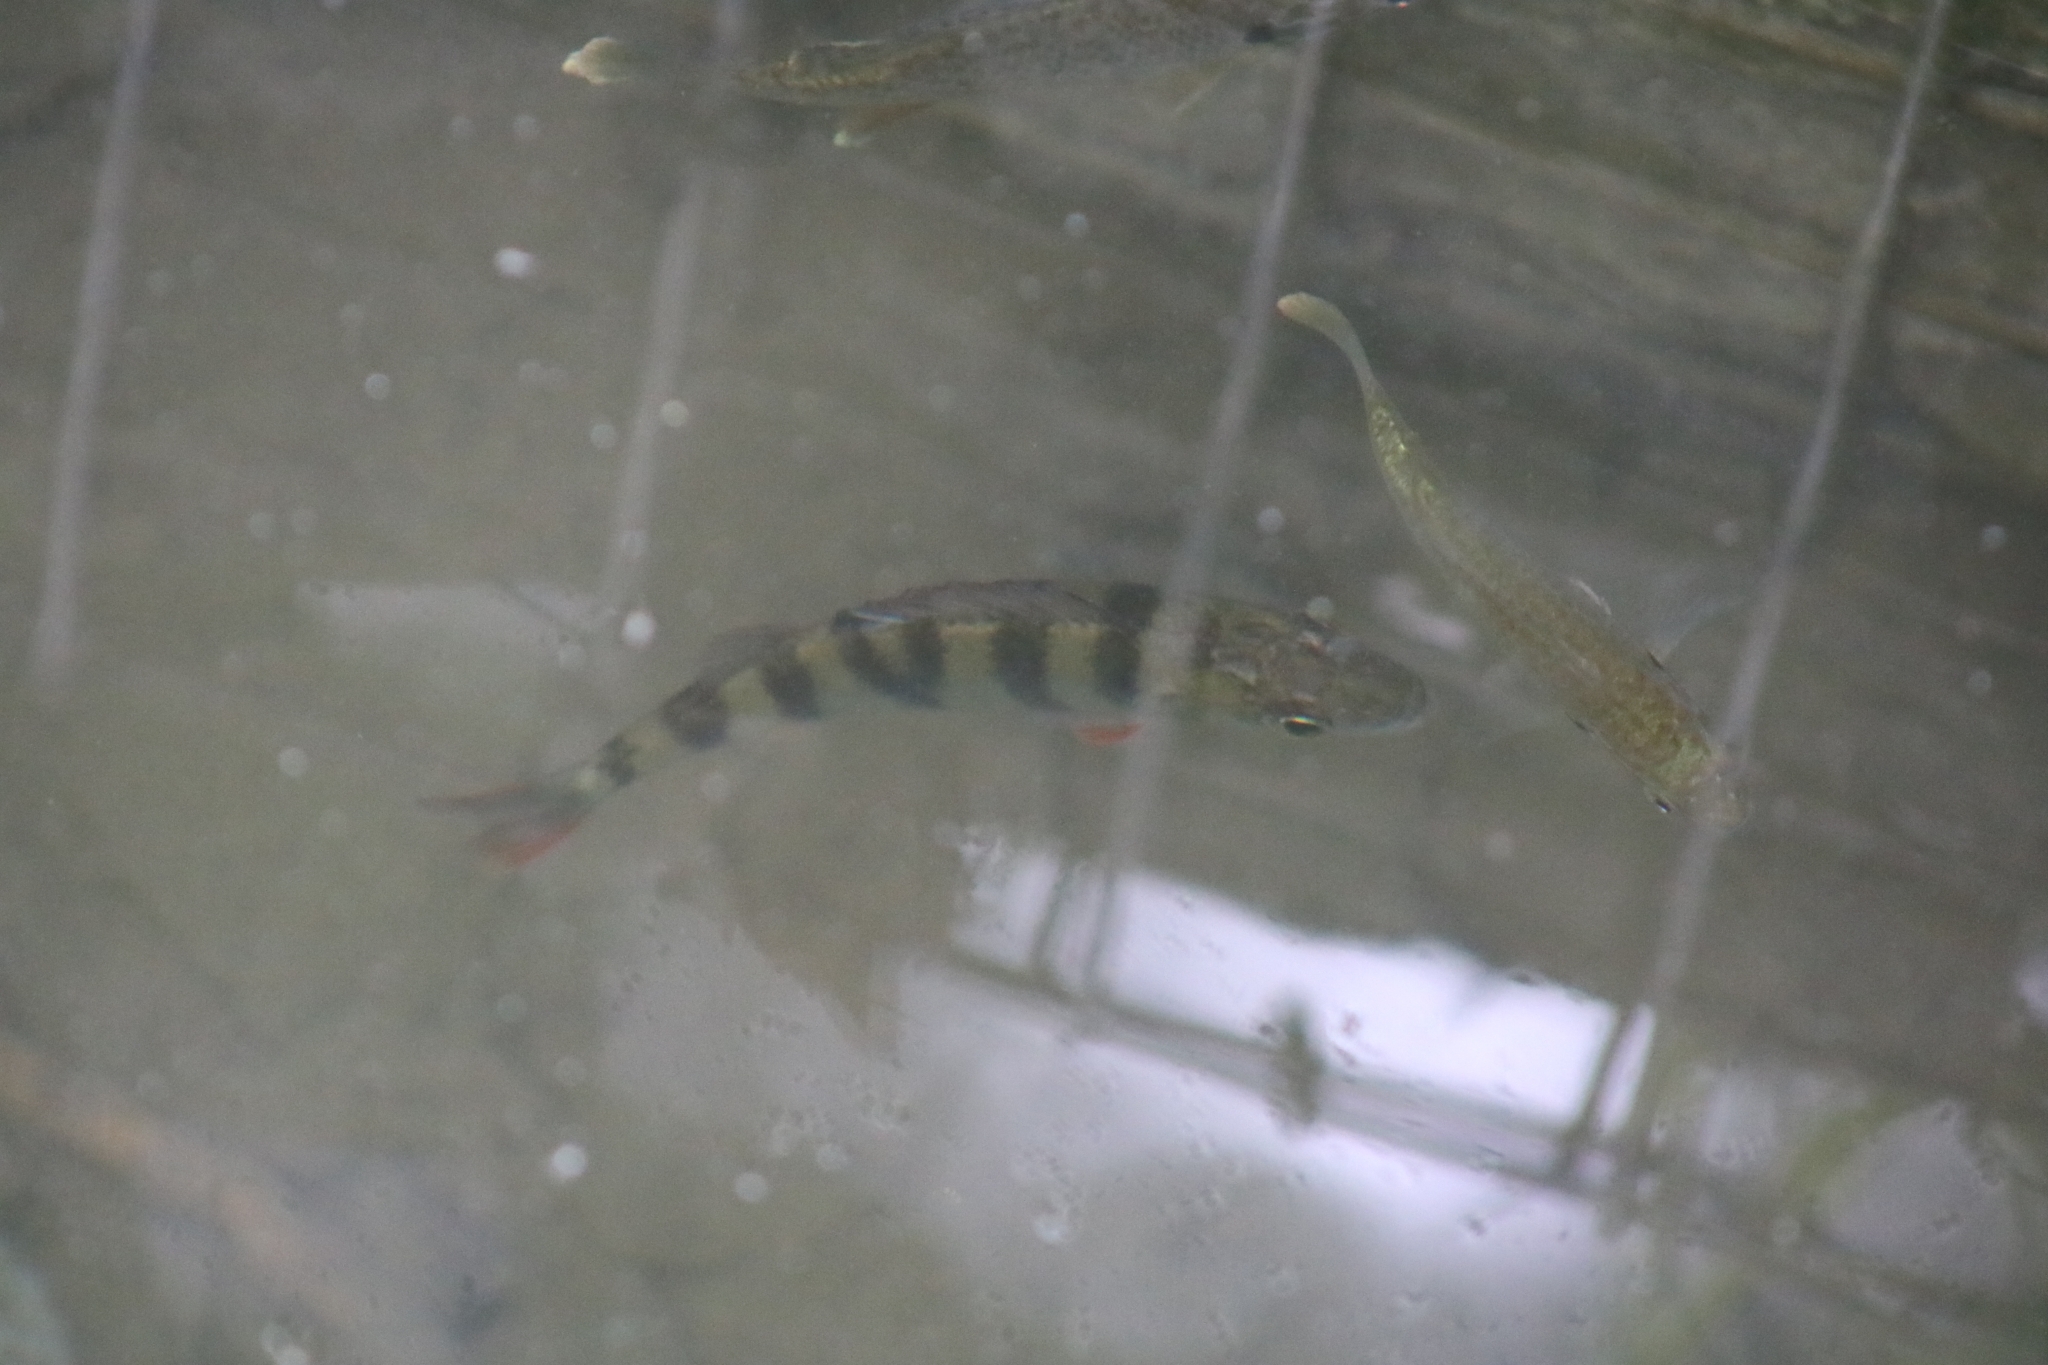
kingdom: Animalia
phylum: Chordata
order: Perciformes
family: Percidae
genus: Perca
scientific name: Perca fluviatilis
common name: Perch
